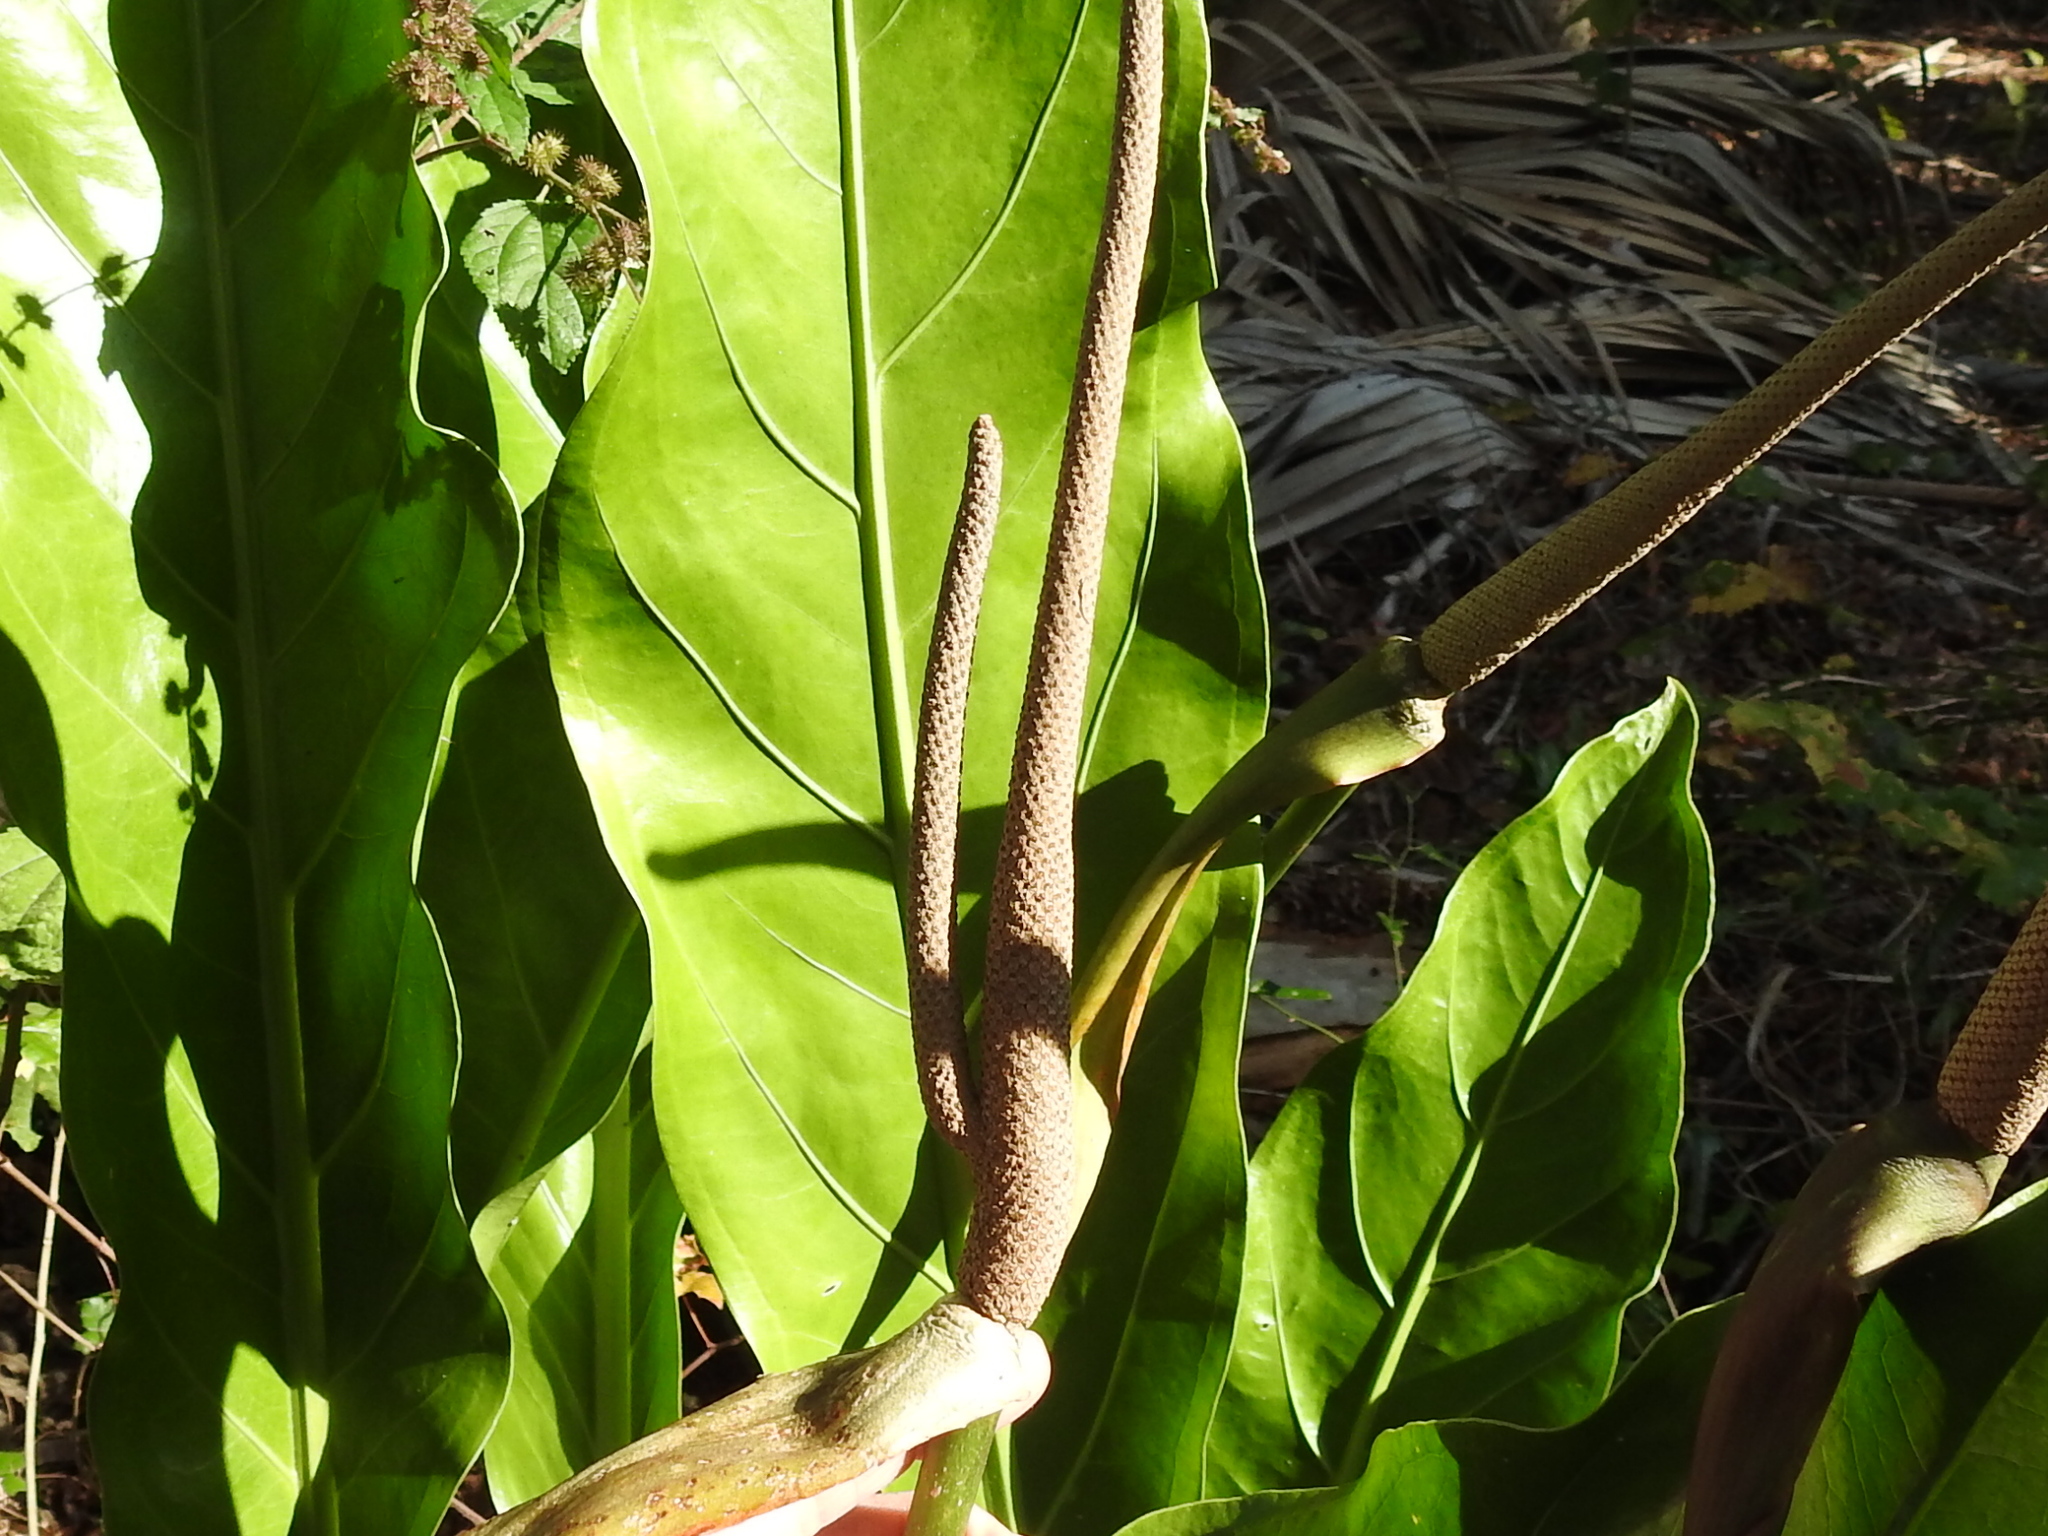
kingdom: Plantae
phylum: Tracheophyta
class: Liliopsida
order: Alismatales
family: Araceae
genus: Anthurium
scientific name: Anthurium schlechtendalii
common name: Laceleaf
